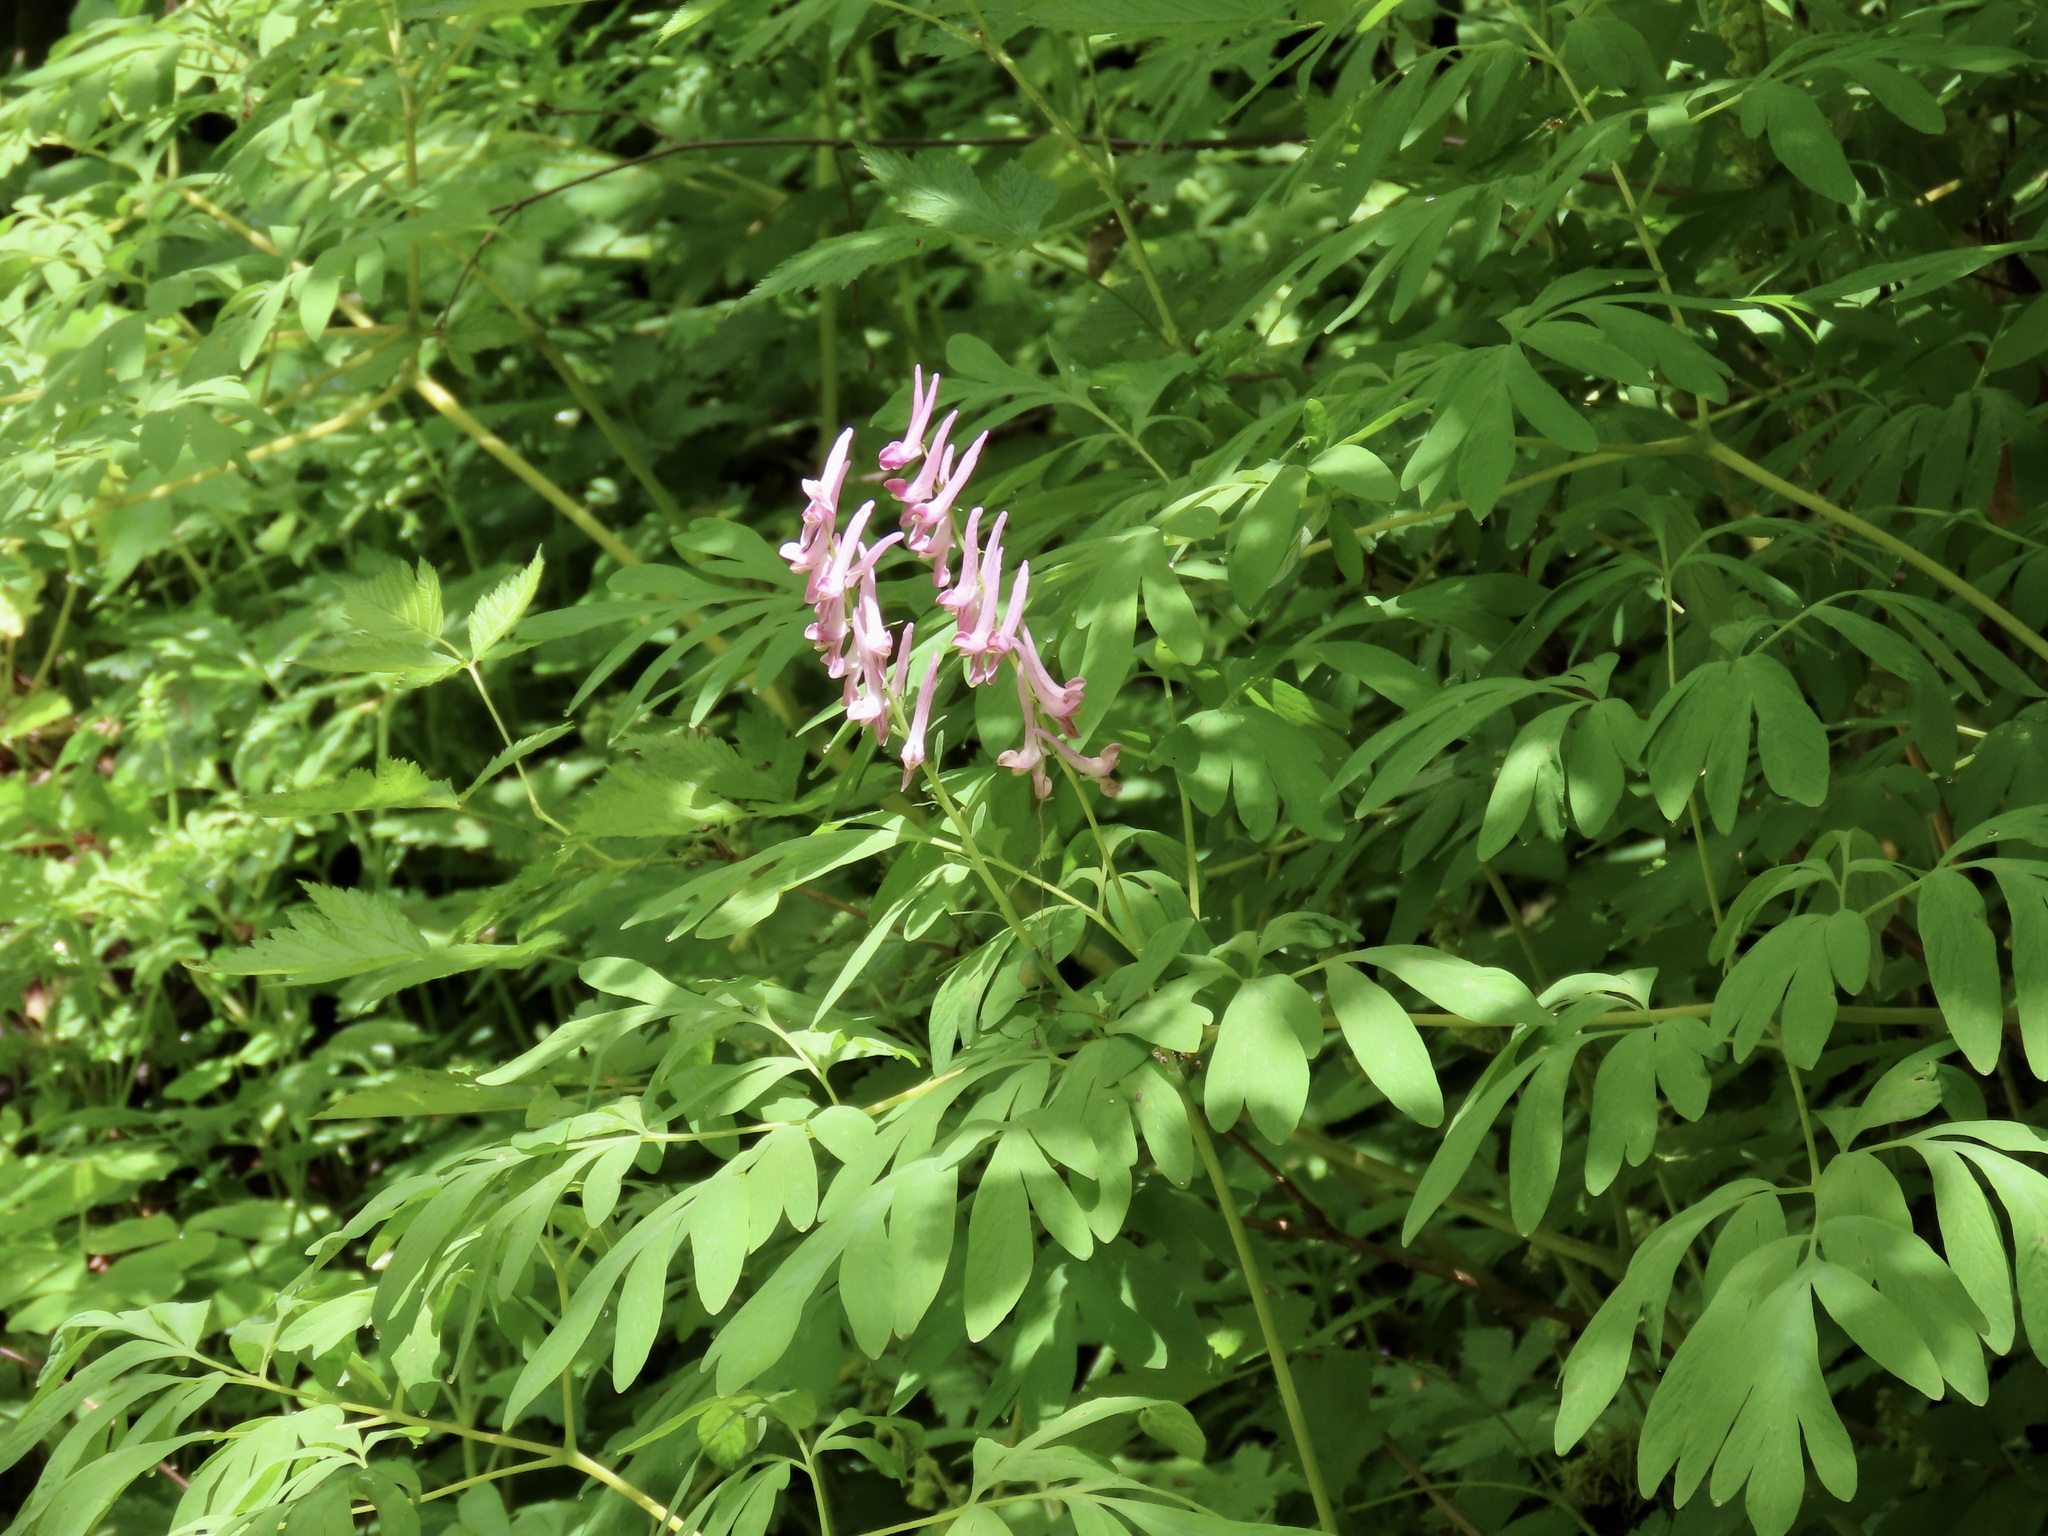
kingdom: Plantae
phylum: Tracheophyta
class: Magnoliopsida
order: Ranunculales
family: Papaveraceae
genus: Corydalis
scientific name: Corydalis scouleri
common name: Scouler's corydalis
